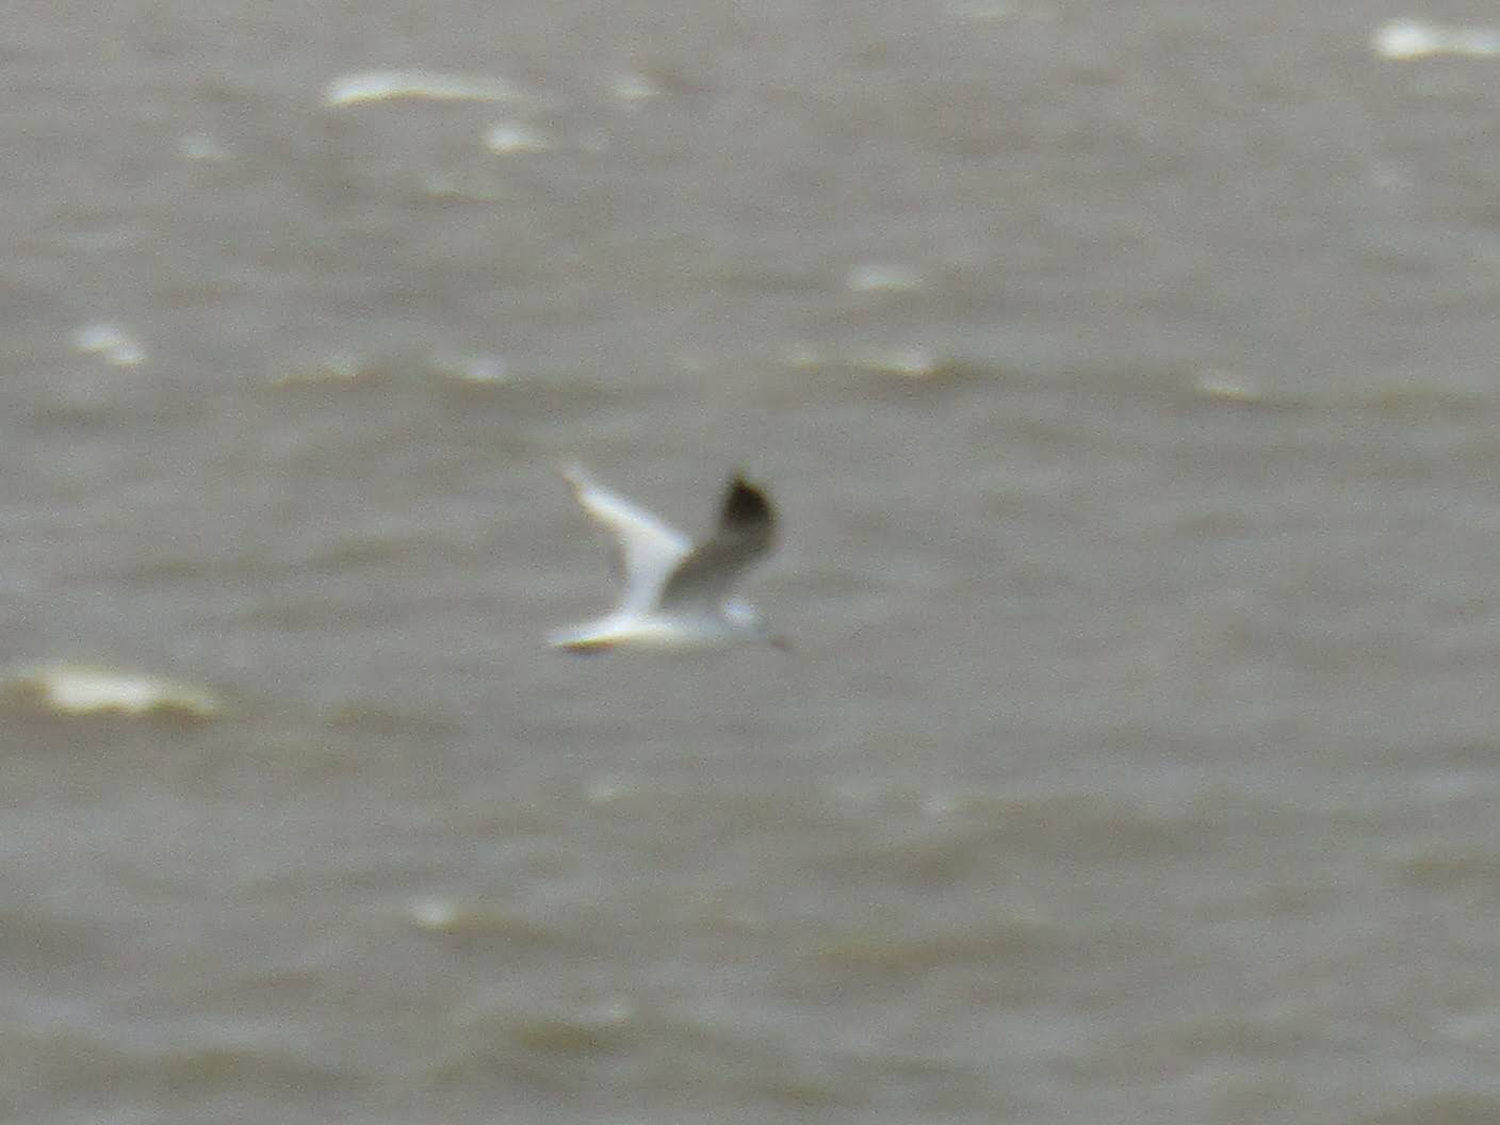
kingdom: Animalia
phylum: Chordata
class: Aves
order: Charadriiformes
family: Laridae
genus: Chroicocephalus
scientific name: Chroicocephalus maculipennis
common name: Brown-hooded gull
